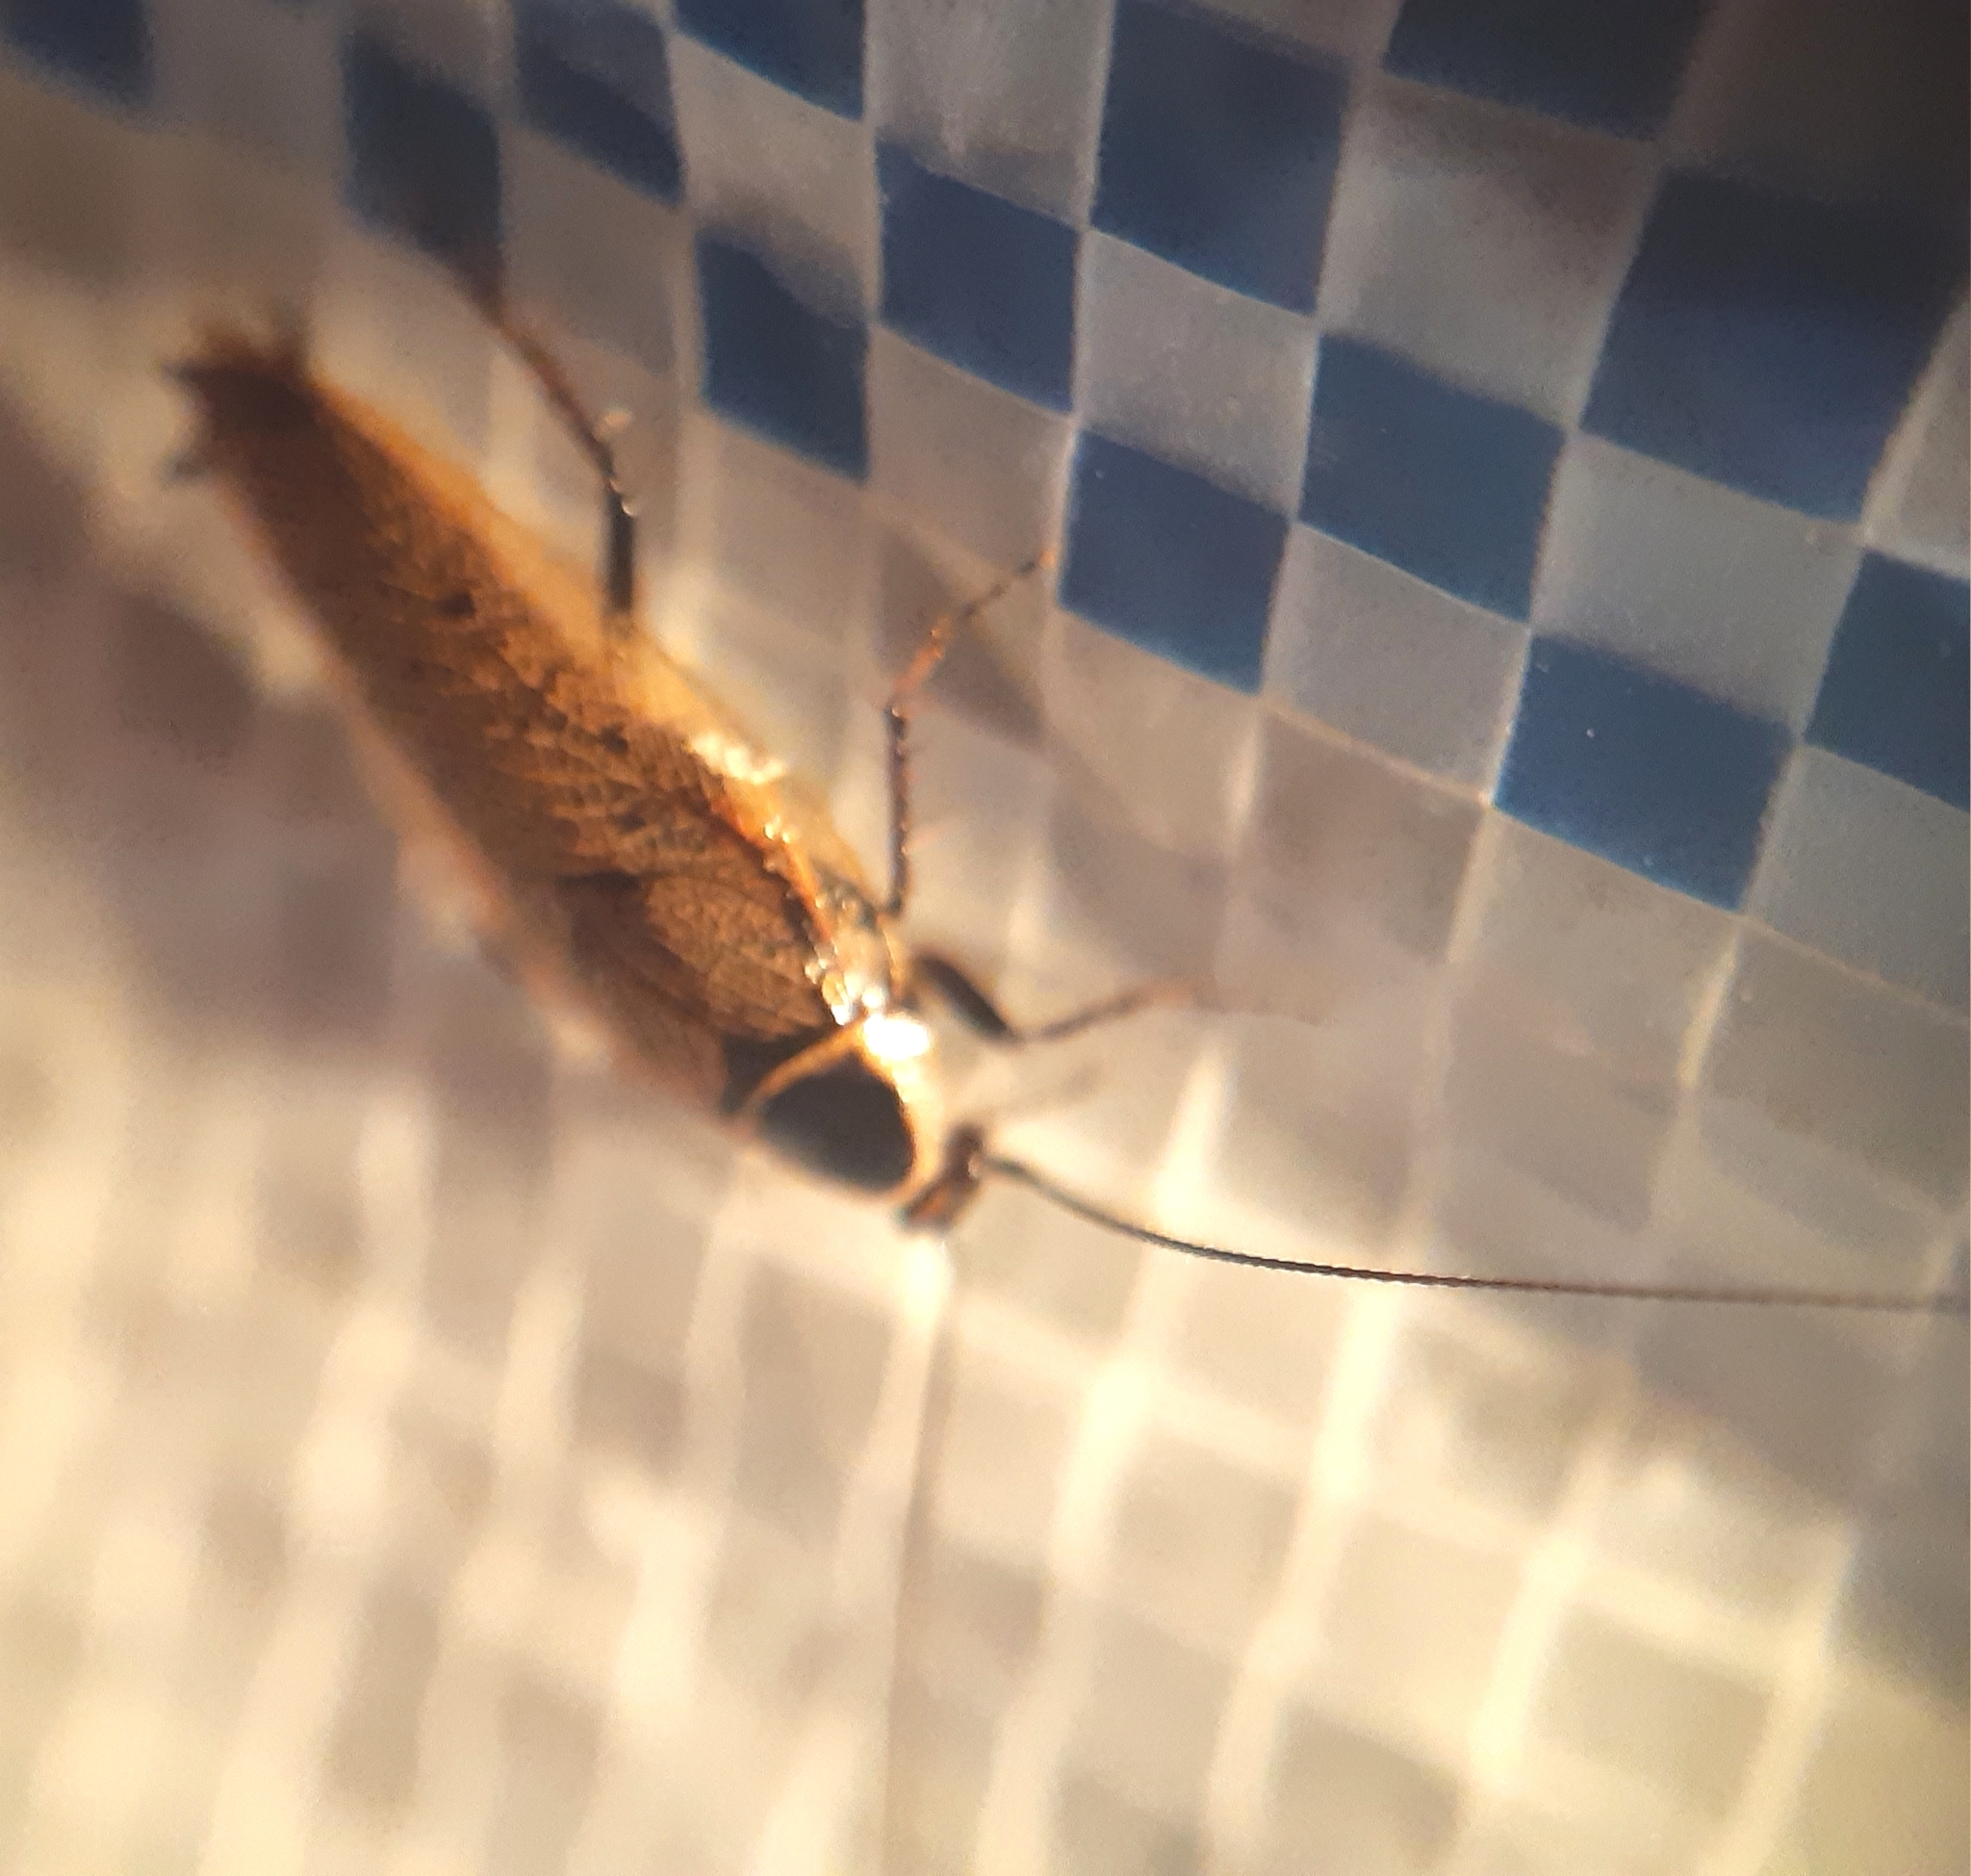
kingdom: Animalia
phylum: Arthropoda
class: Insecta
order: Blattodea
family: Ectobiidae
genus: Ectobius
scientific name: Ectobius sylvestris
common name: Forest cockroach
